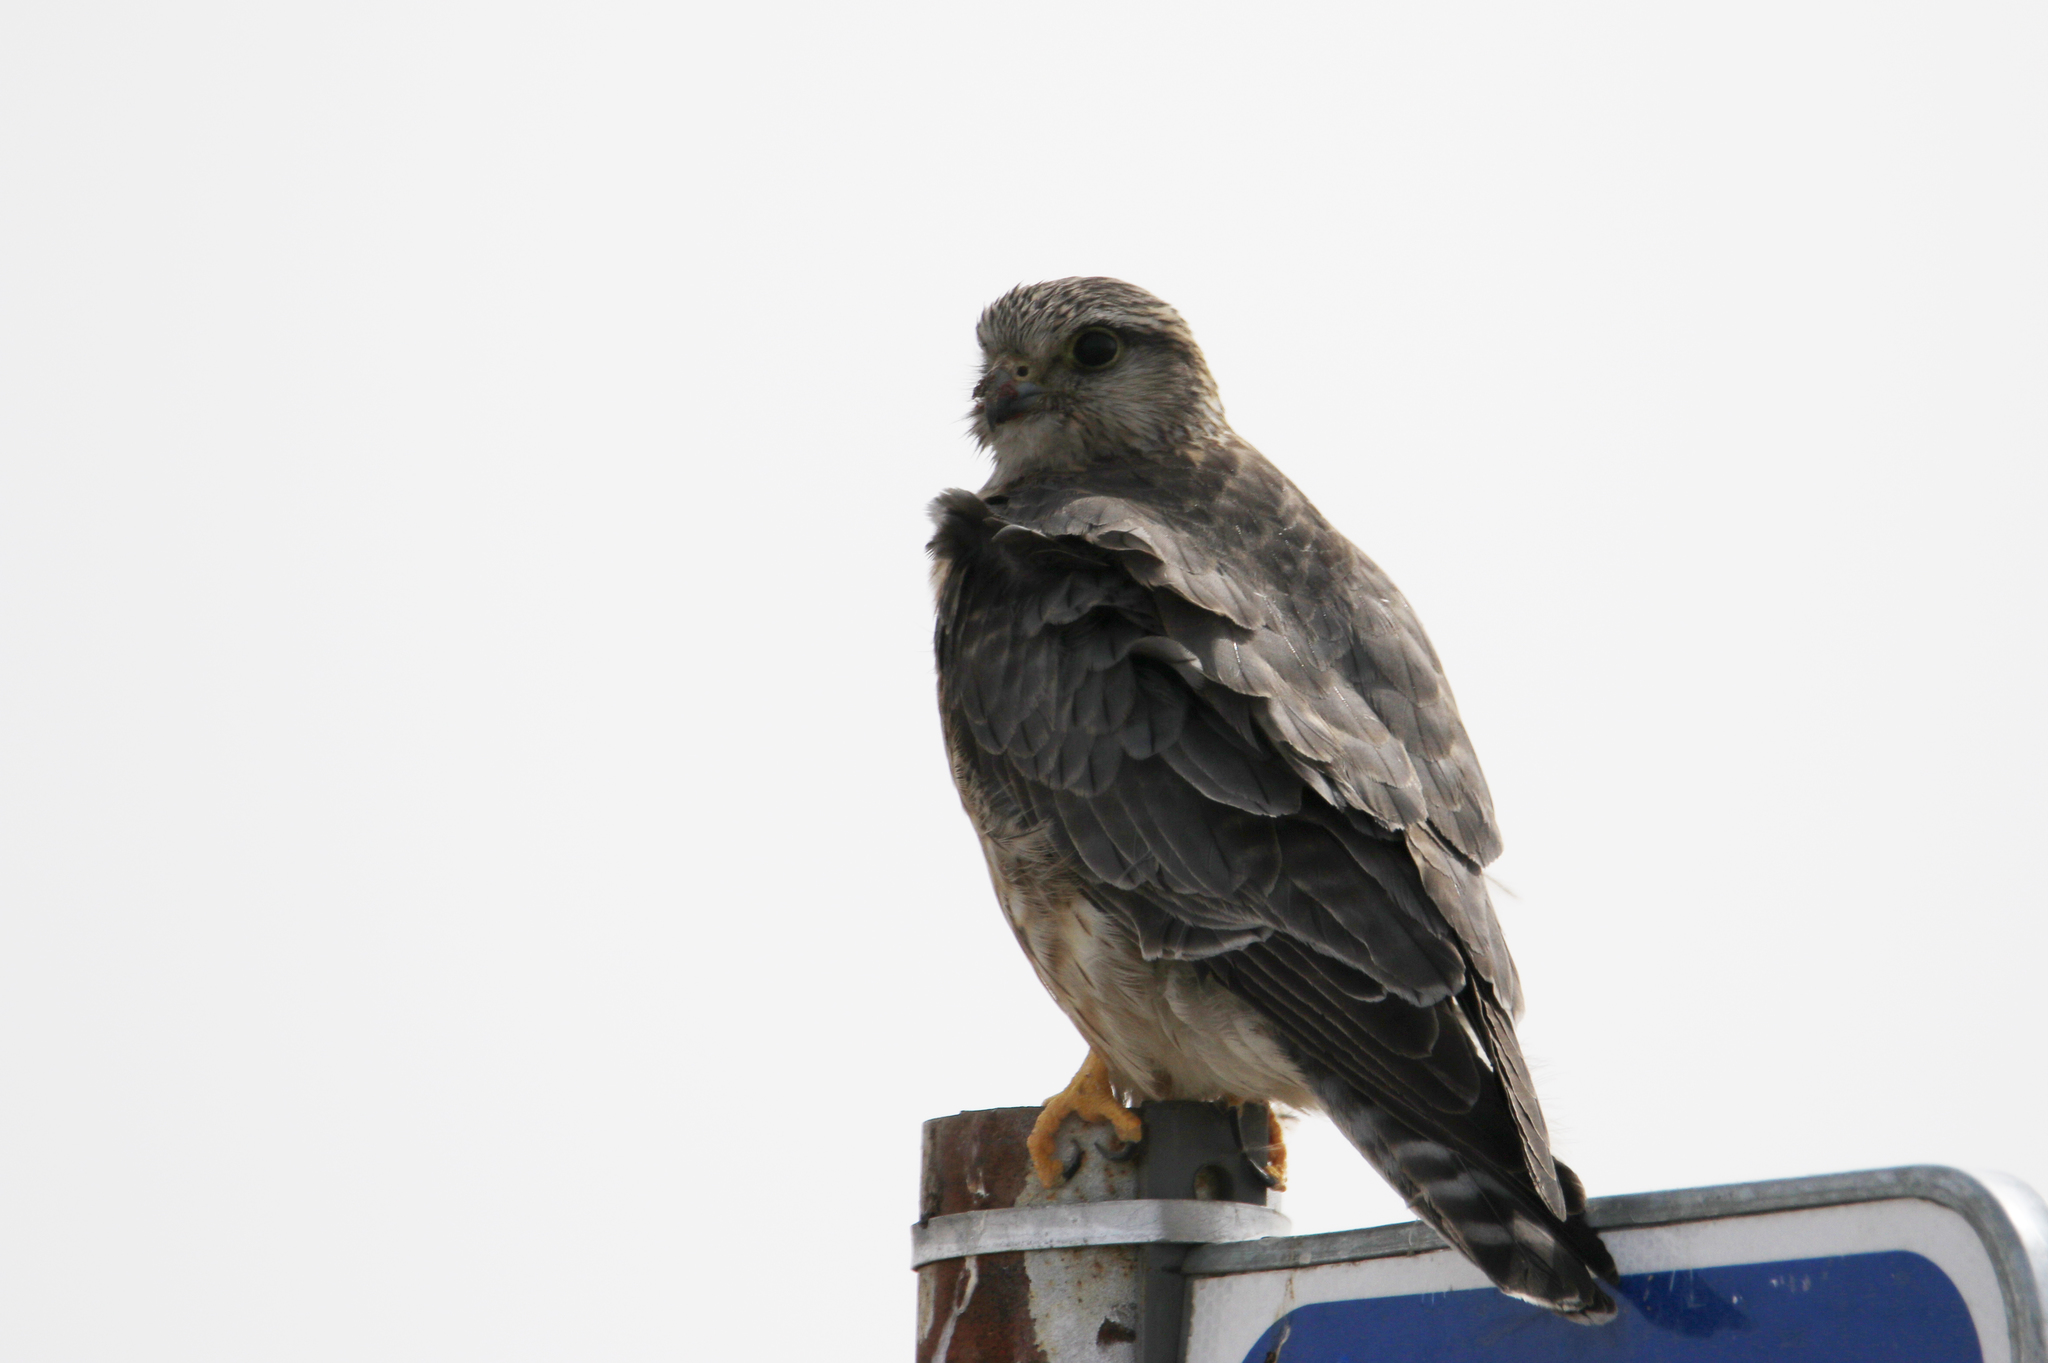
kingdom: Animalia
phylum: Chordata
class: Aves
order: Falconiformes
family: Falconidae
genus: Falco
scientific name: Falco columbarius
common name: Merlin
